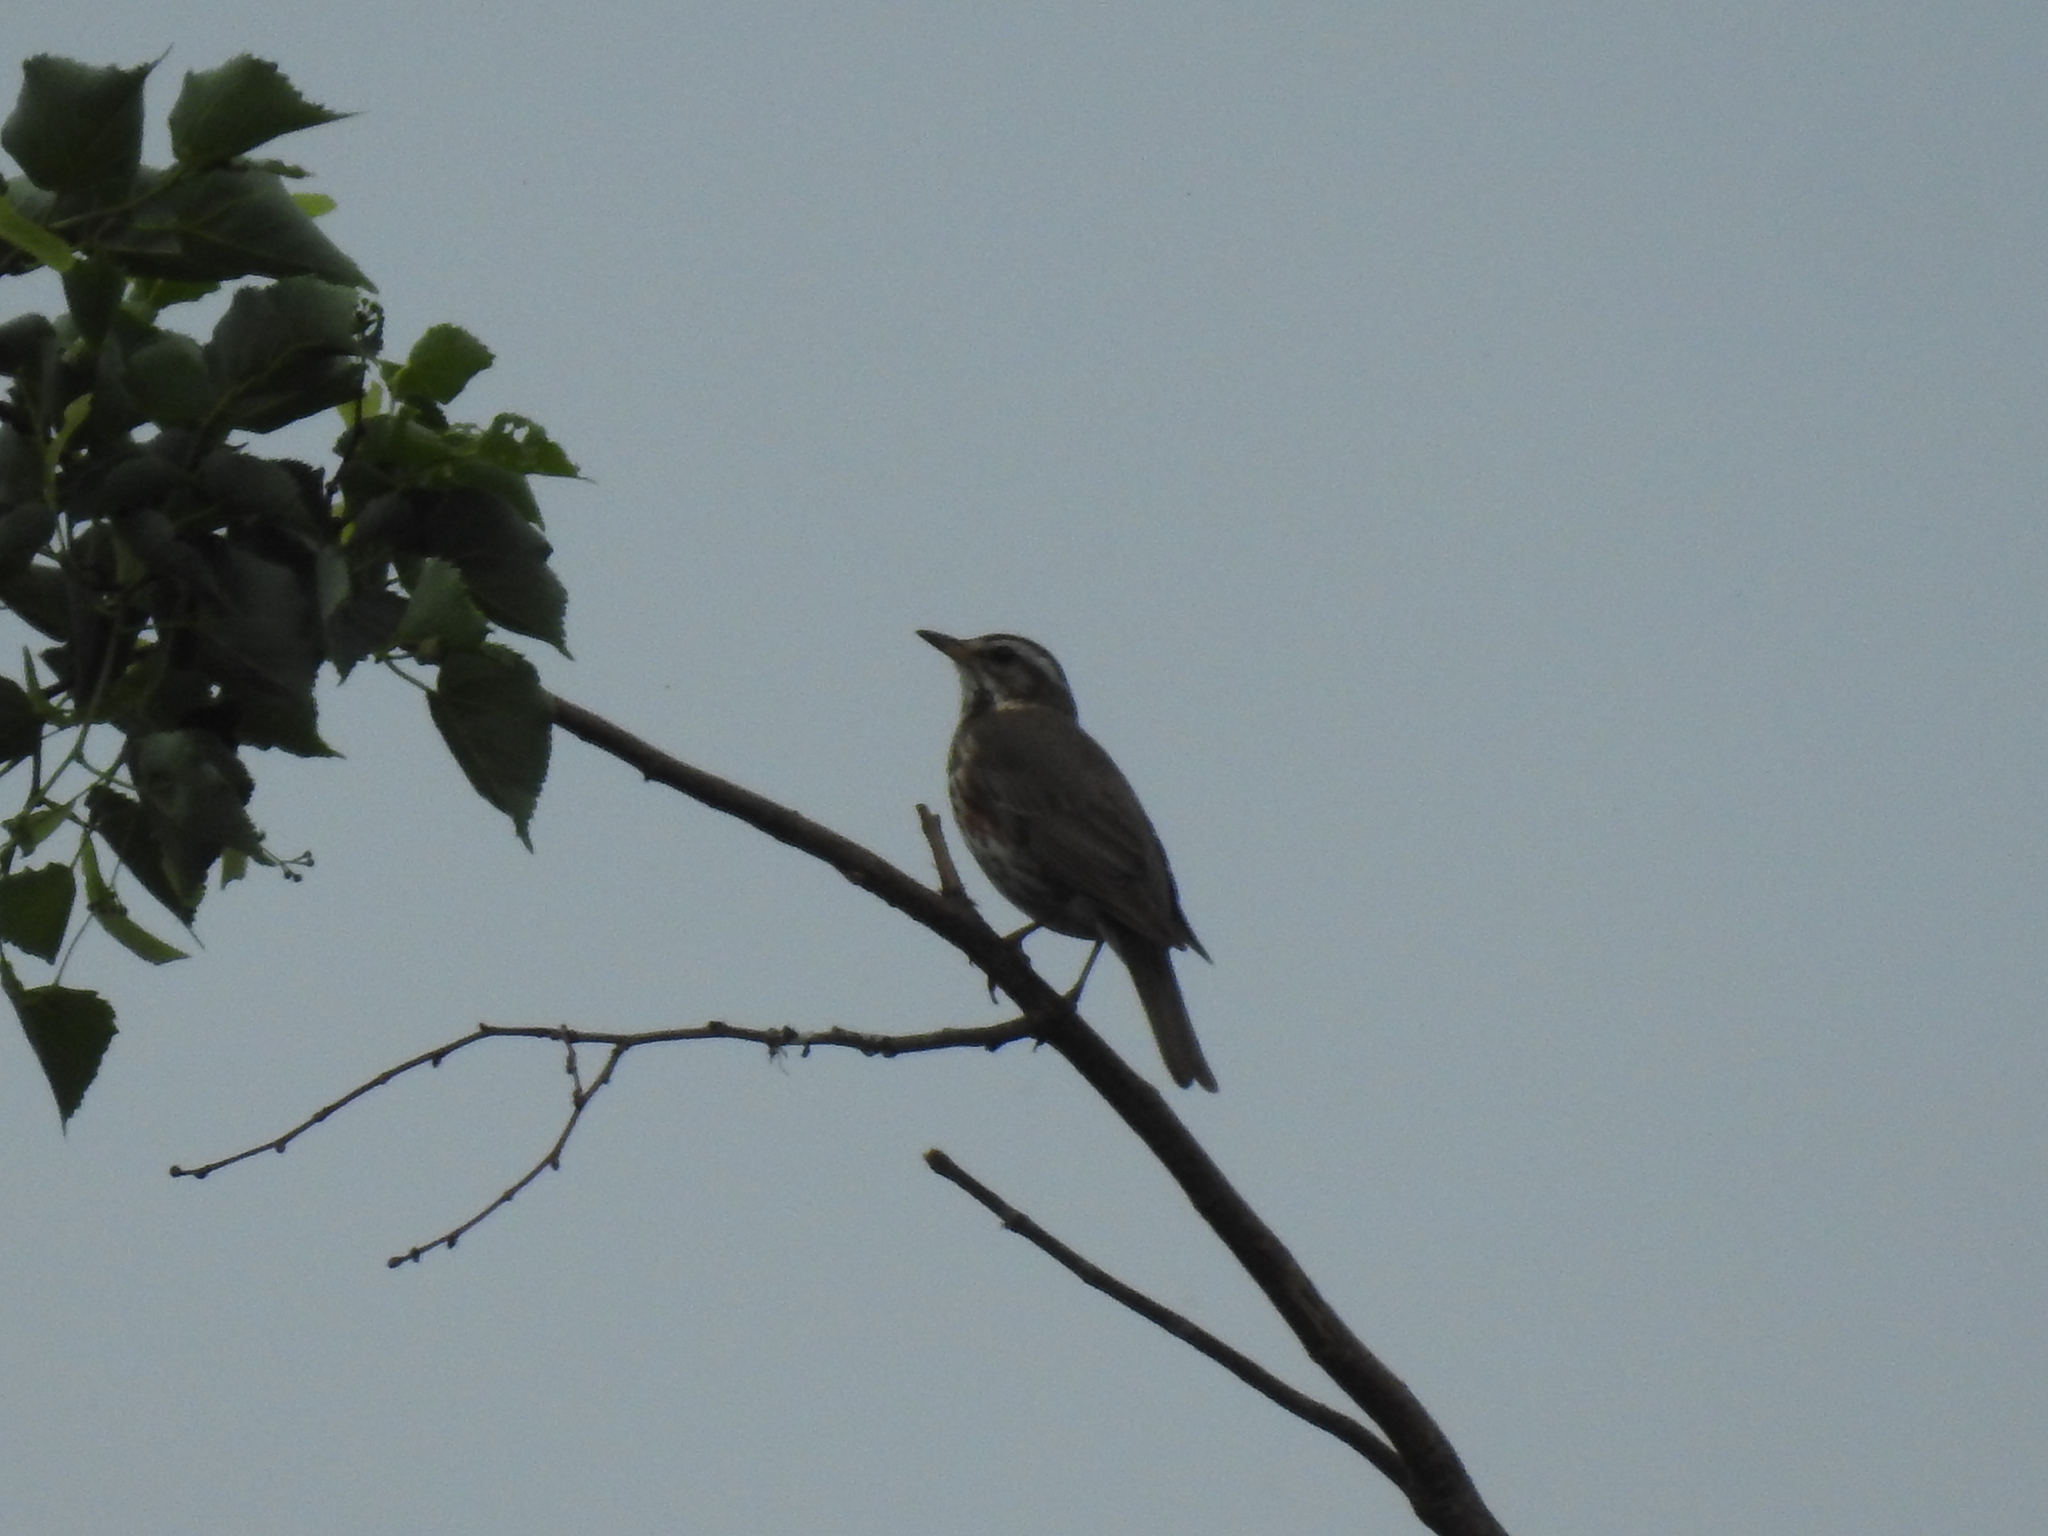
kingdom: Animalia
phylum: Chordata
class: Aves
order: Passeriformes
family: Turdidae
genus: Turdus
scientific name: Turdus iliacus
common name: Redwing
